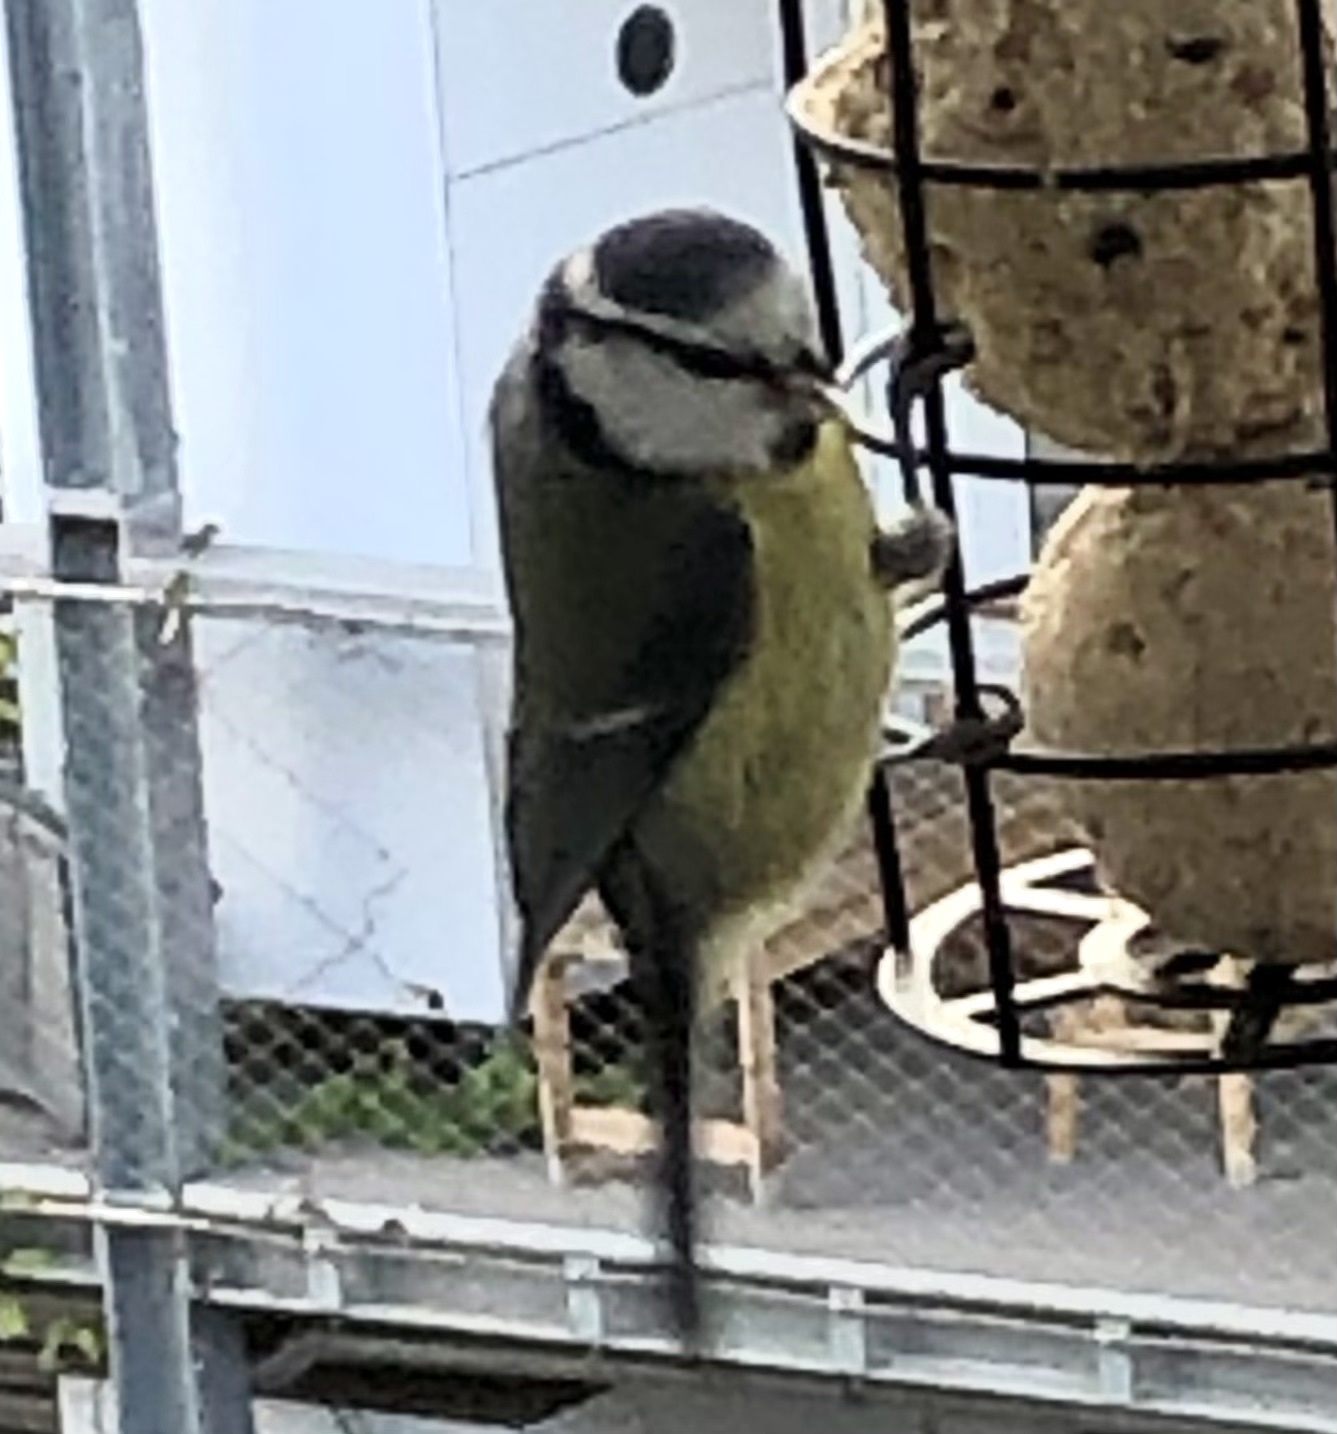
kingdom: Animalia
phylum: Chordata
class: Aves
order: Passeriformes
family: Paridae
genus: Cyanistes
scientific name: Cyanistes caeruleus
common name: Eurasian blue tit
